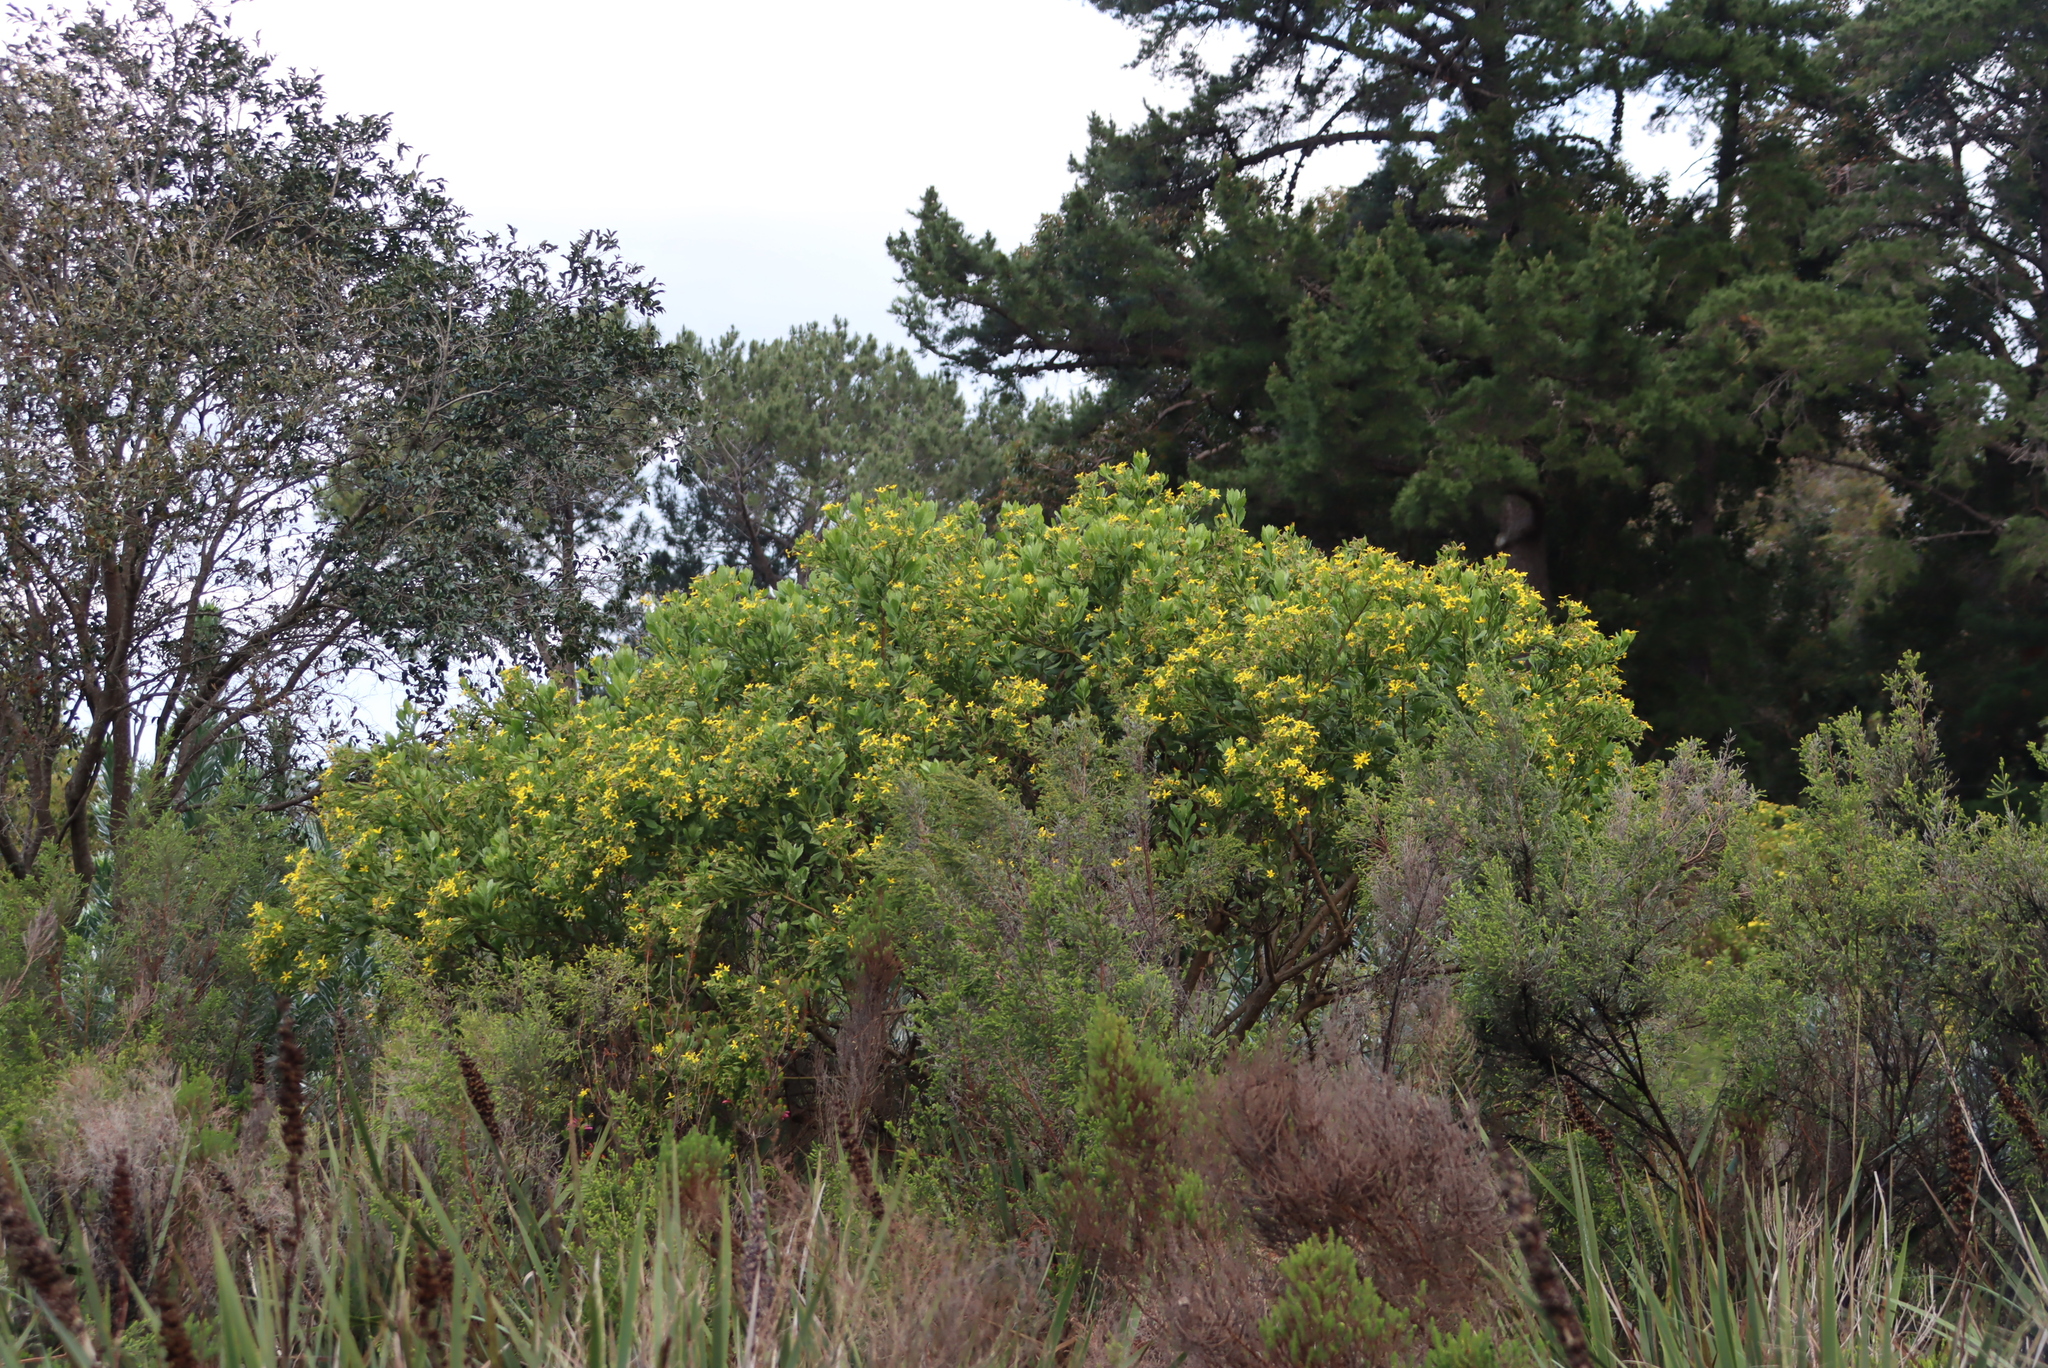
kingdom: Plantae
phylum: Tracheophyta
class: Magnoliopsida
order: Asterales
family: Asteraceae
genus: Osteospermum
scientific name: Osteospermum moniliferum
